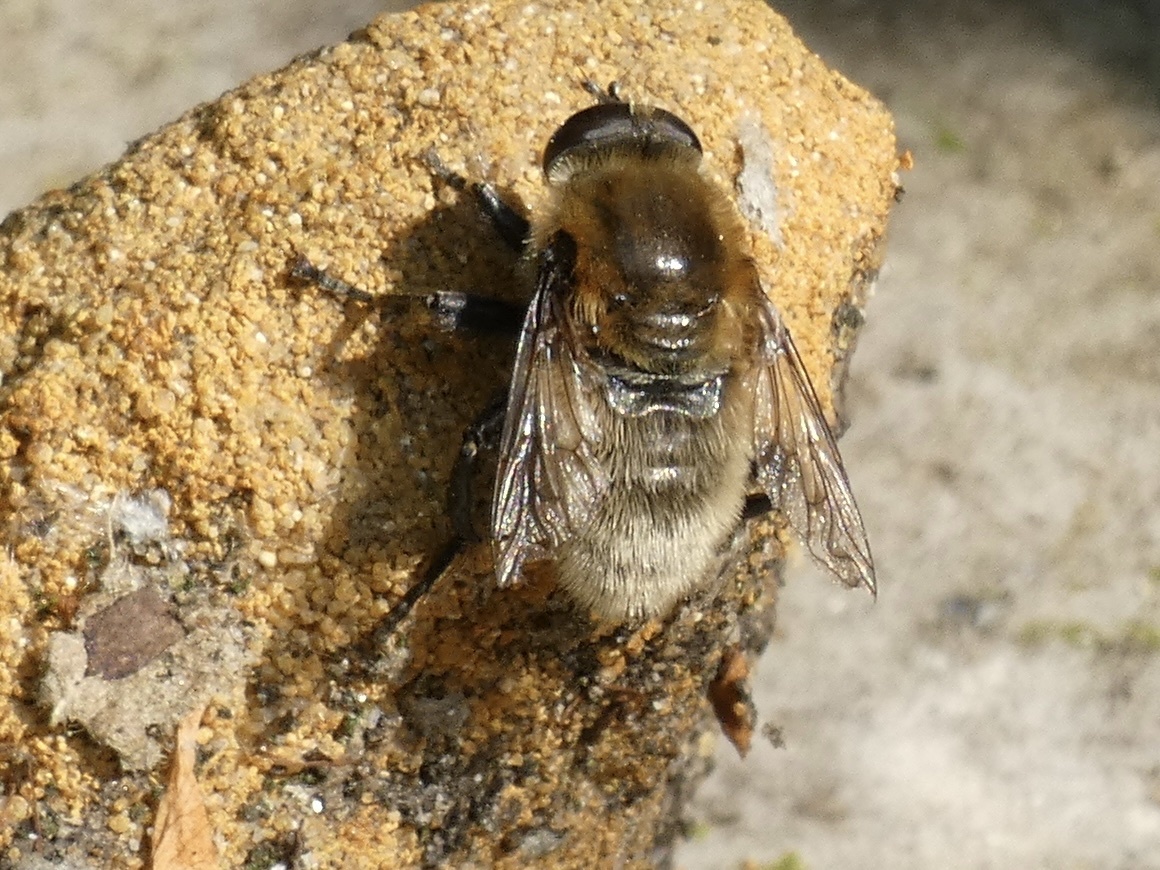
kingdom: Animalia
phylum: Arthropoda
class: Insecta
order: Diptera
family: Syrphidae
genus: Merodon
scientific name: Merodon equestris
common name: Greater bulb-fly
